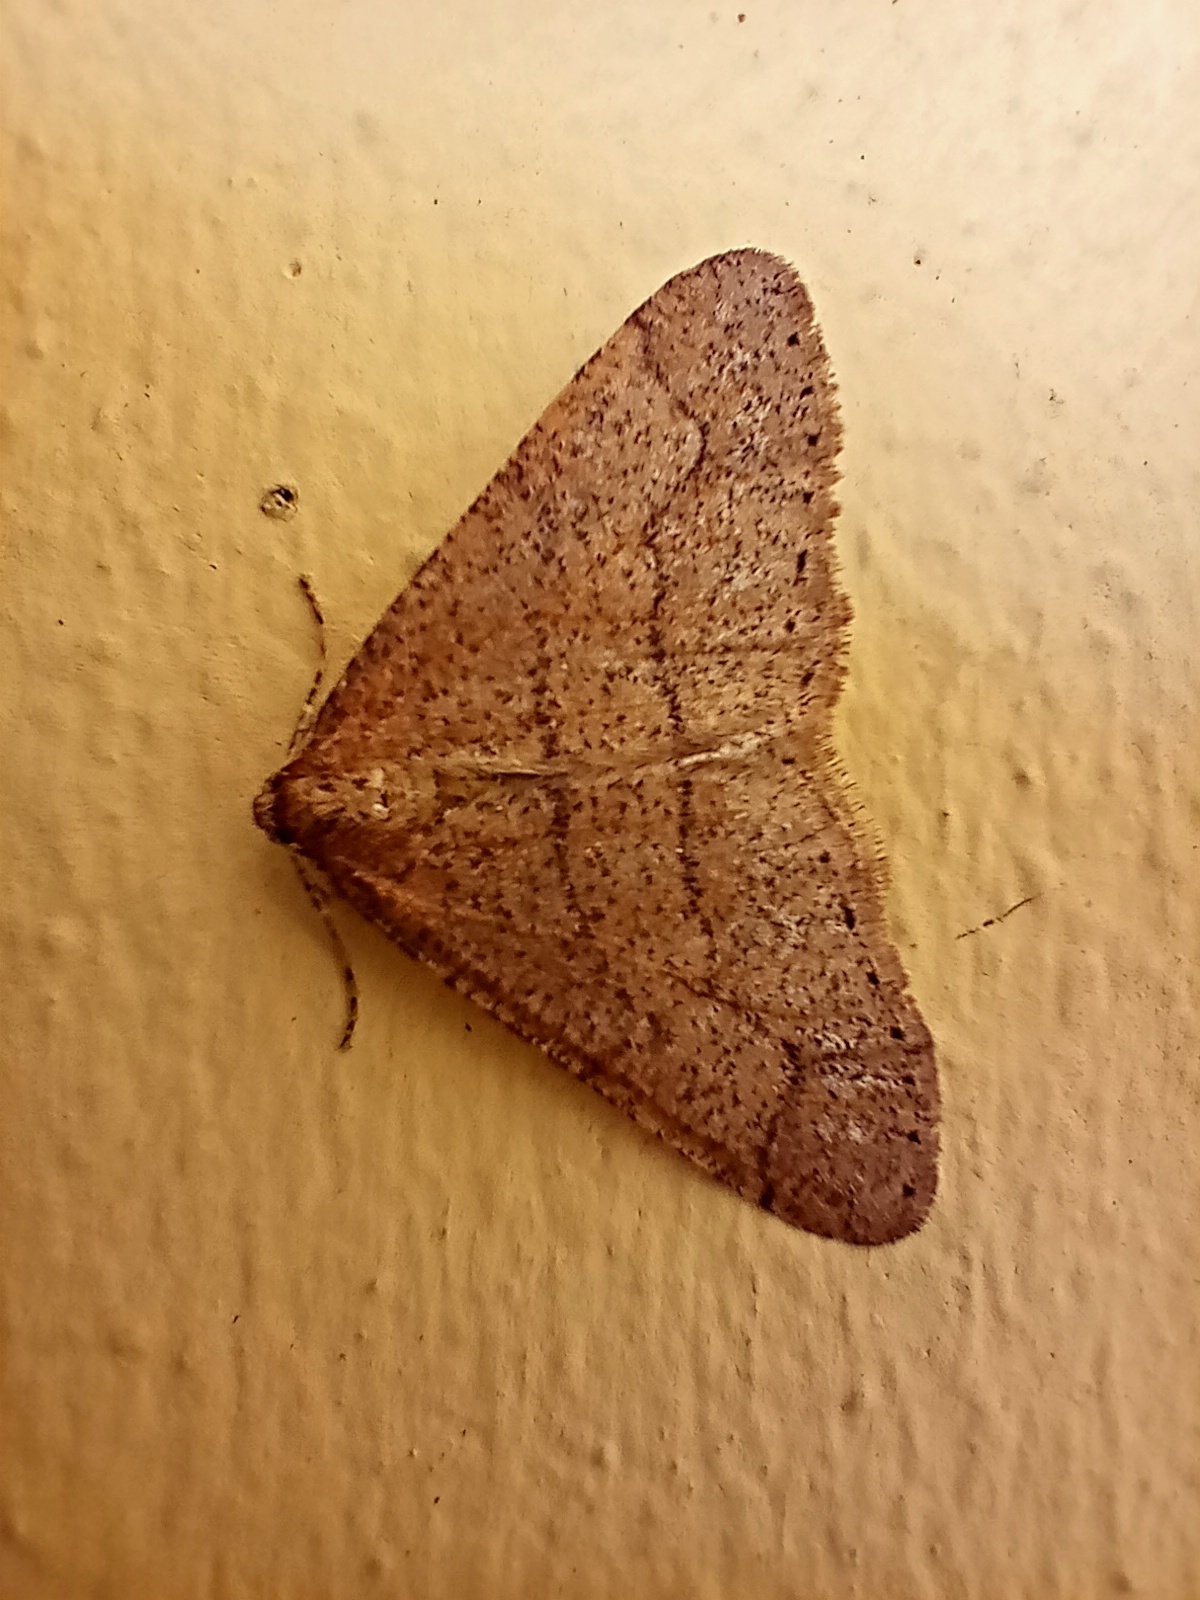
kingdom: Animalia
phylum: Arthropoda
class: Insecta
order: Lepidoptera
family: Geometridae
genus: Agriopis
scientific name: Agriopis marginaria
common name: Dotted border
